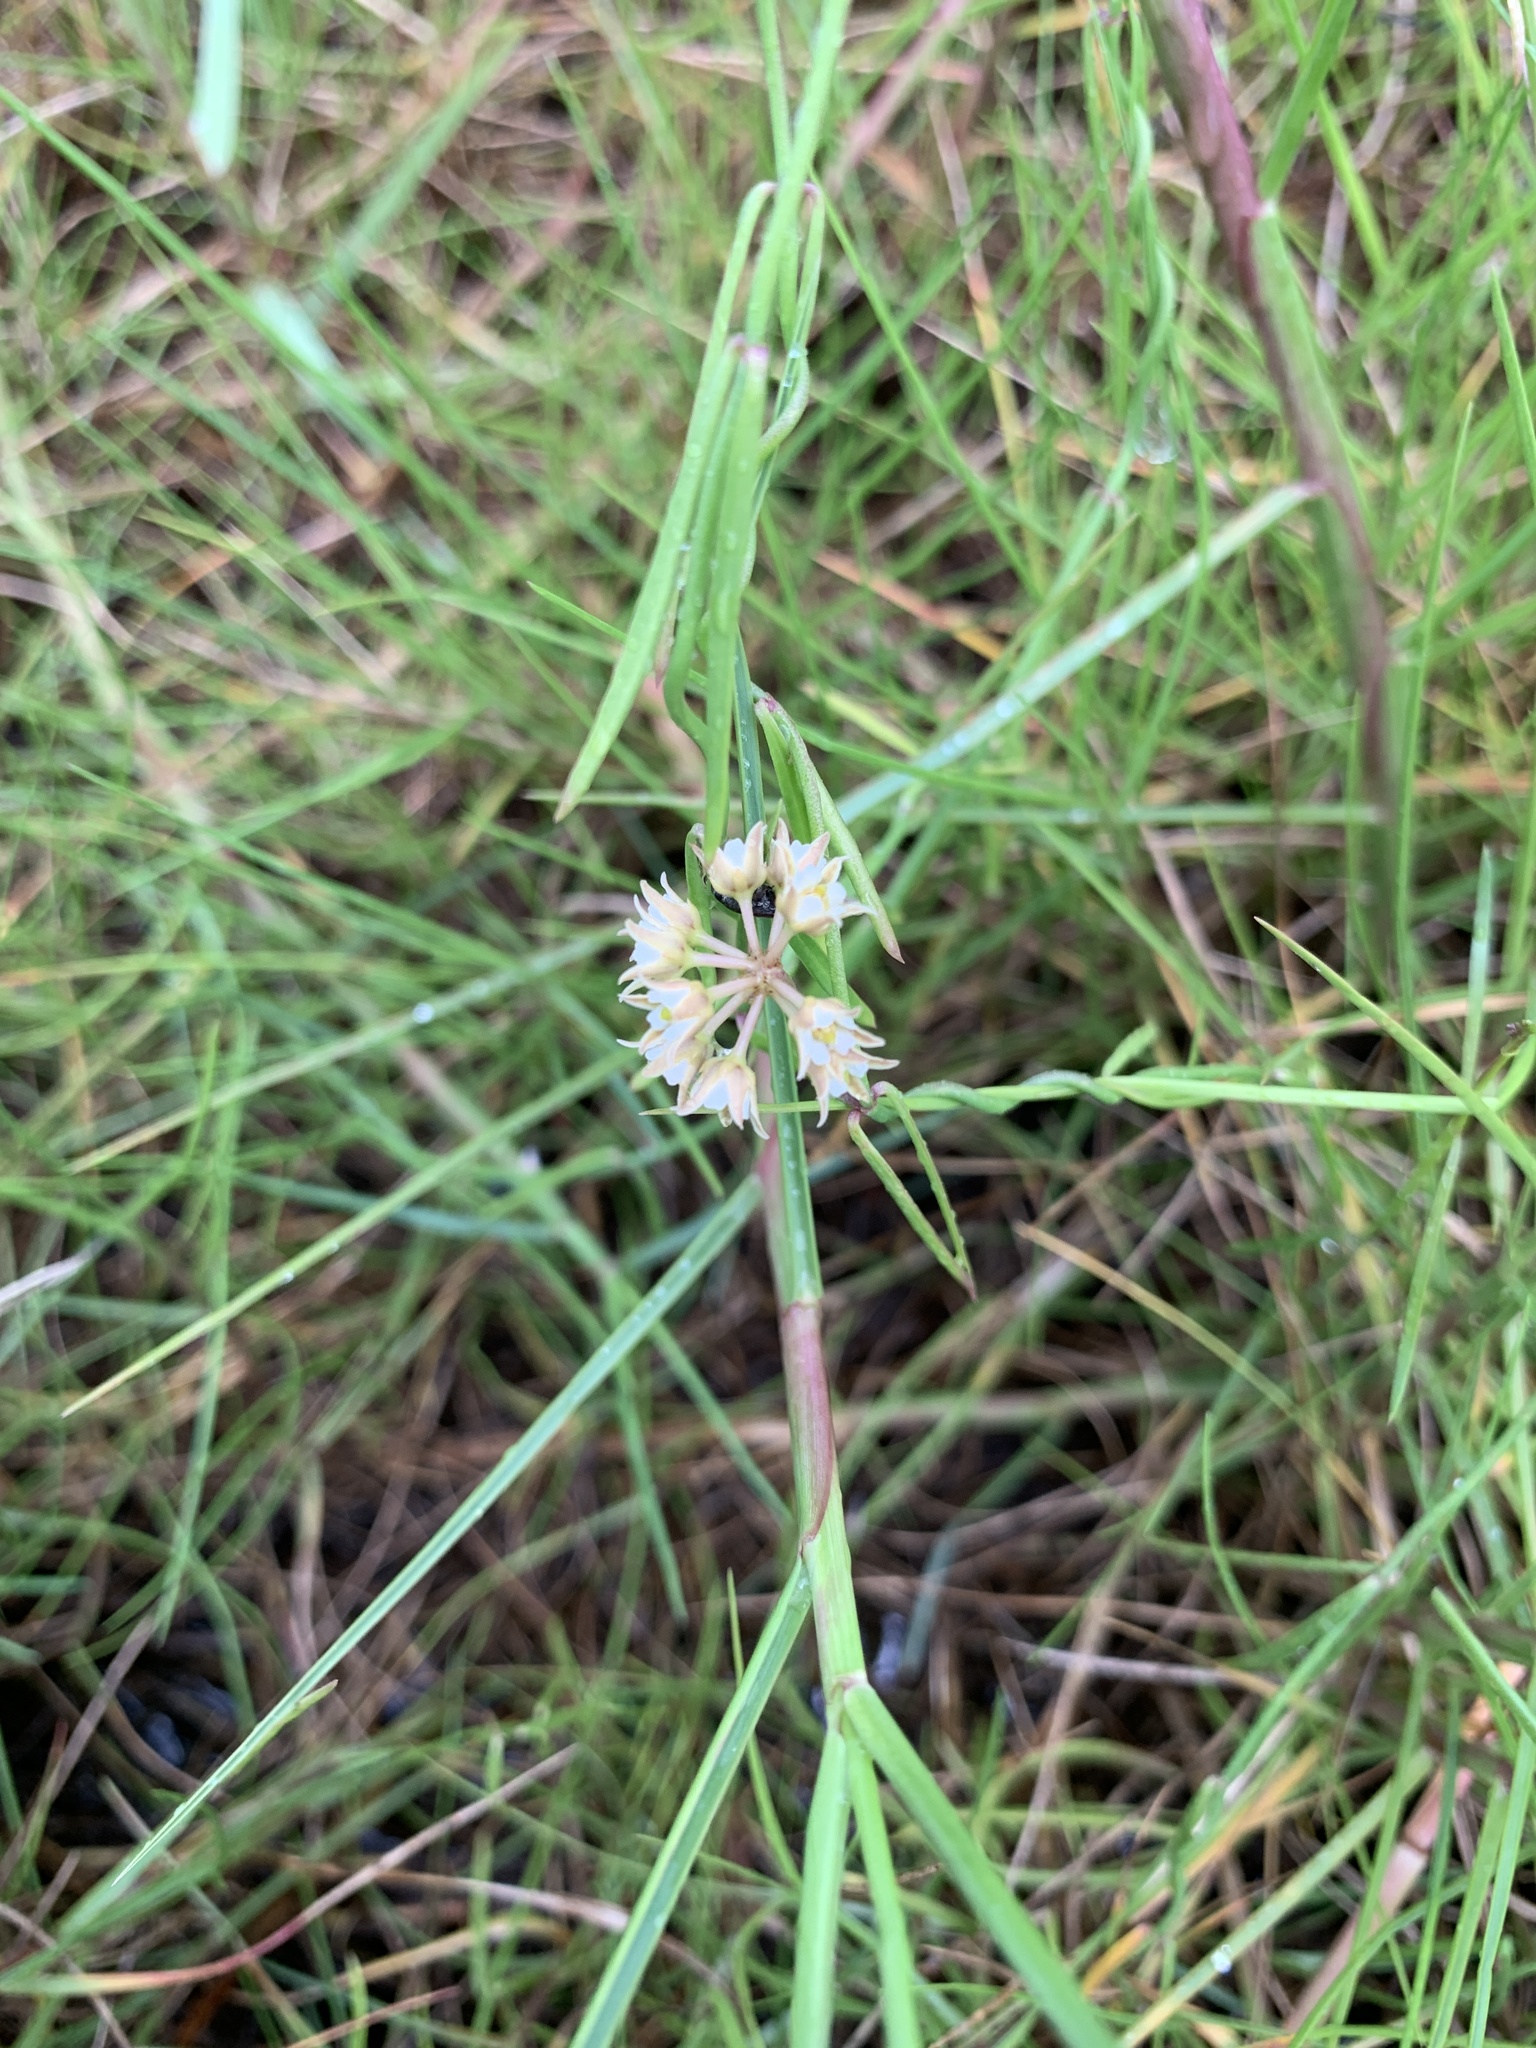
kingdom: Plantae
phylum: Tracheophyta
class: Magnoliopsida
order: Gentianales
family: Apocynaceae
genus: Pattalias
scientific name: Pattalias
